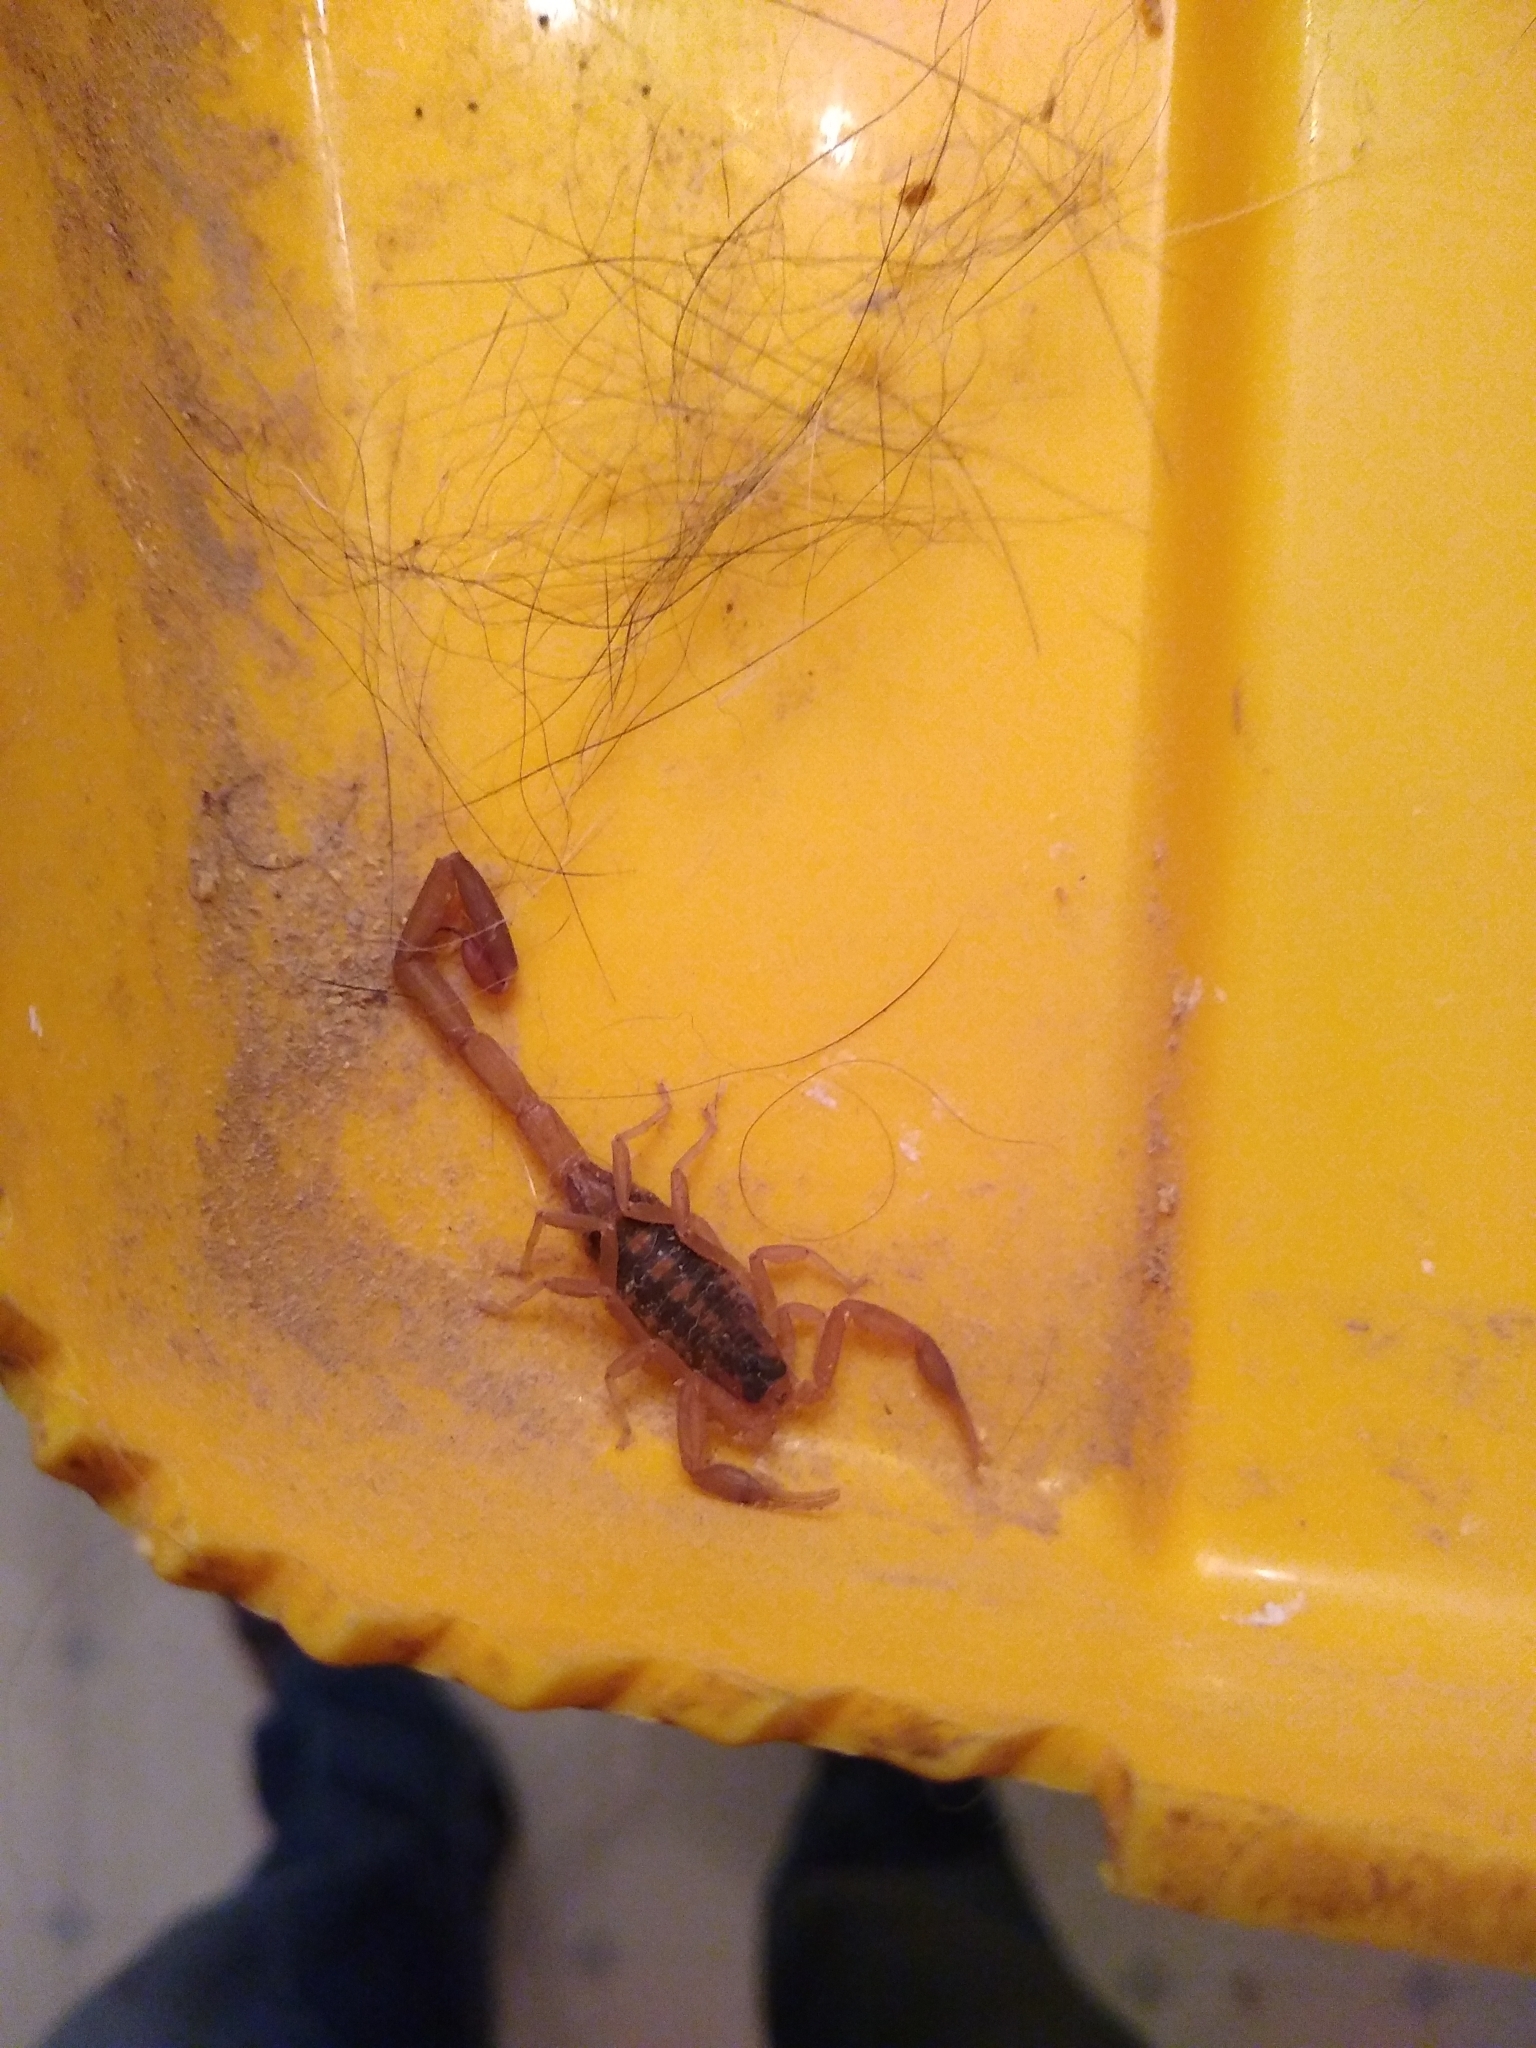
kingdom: Animalia
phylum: Arthropoda
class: Arachnida
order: Scorpiones
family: Buthidae
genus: Centruroides
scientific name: Centruroides vittatus
